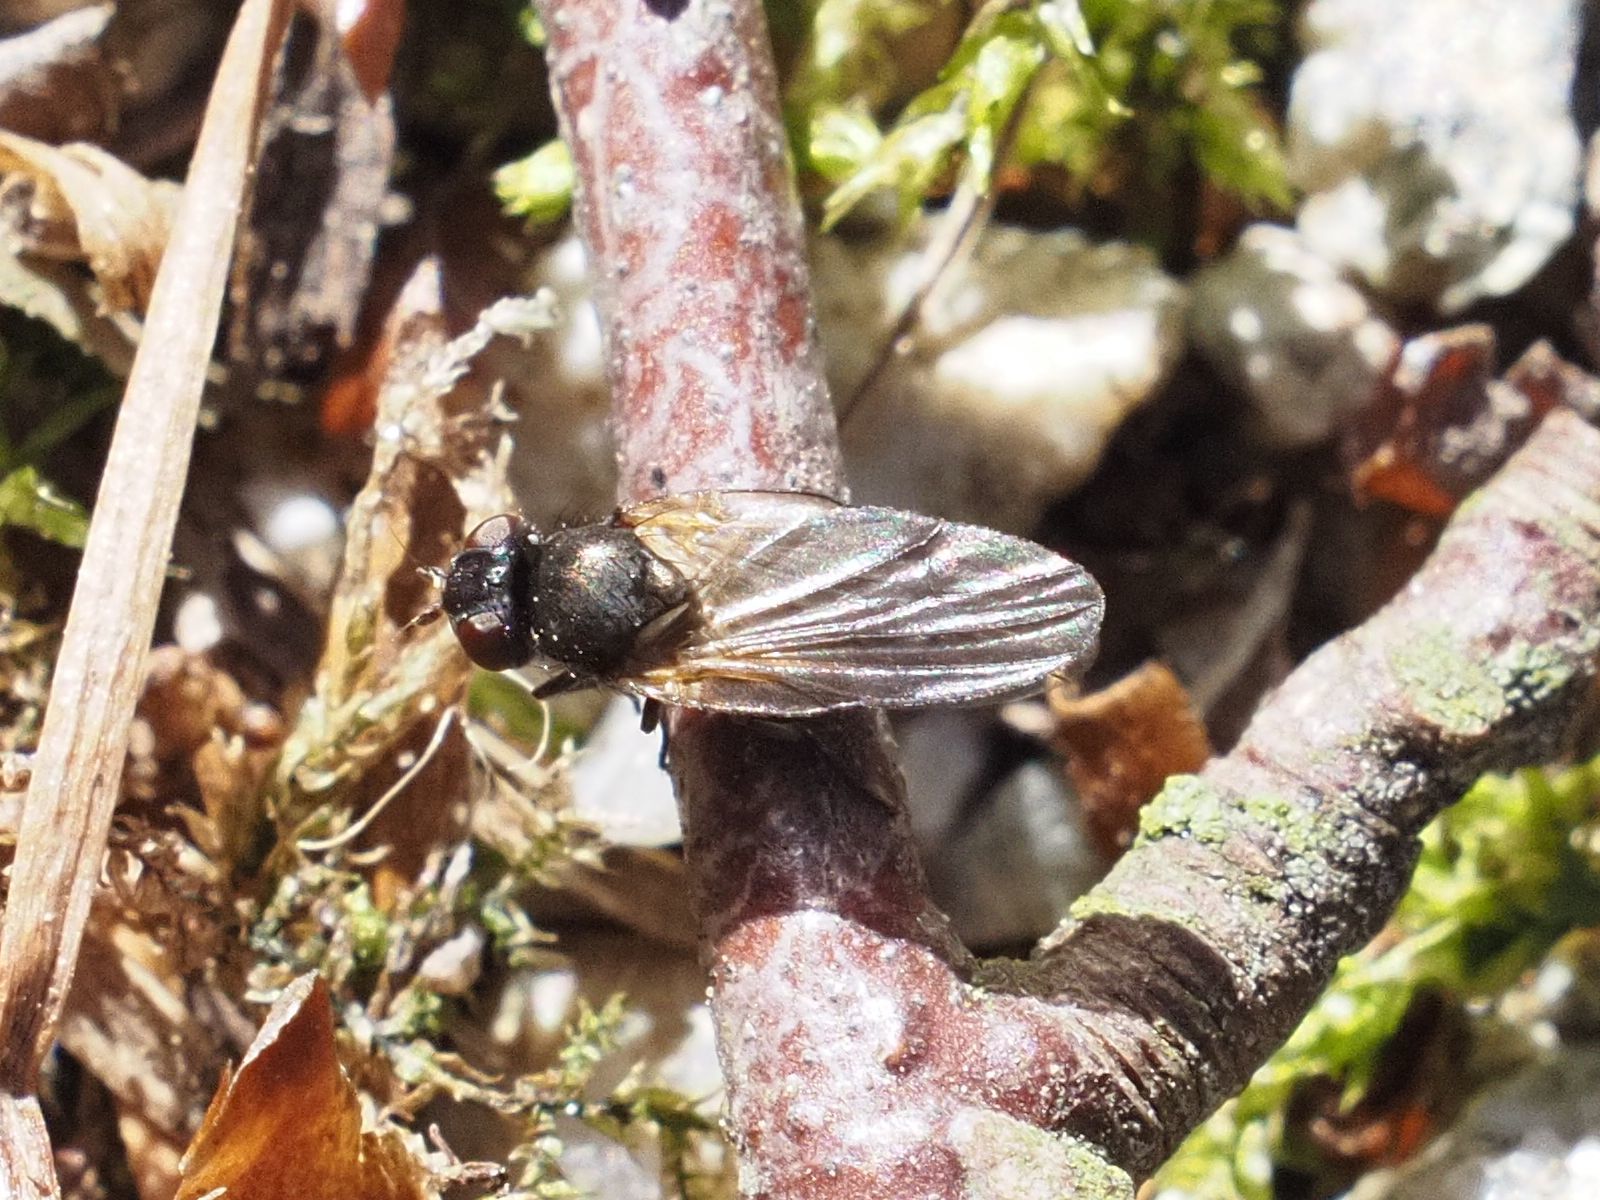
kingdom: Animalia
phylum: Arthropoda
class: Insecta
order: Diptera
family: Lonchaeidae
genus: Earomyia
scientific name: Earomyia lonchaeoides
